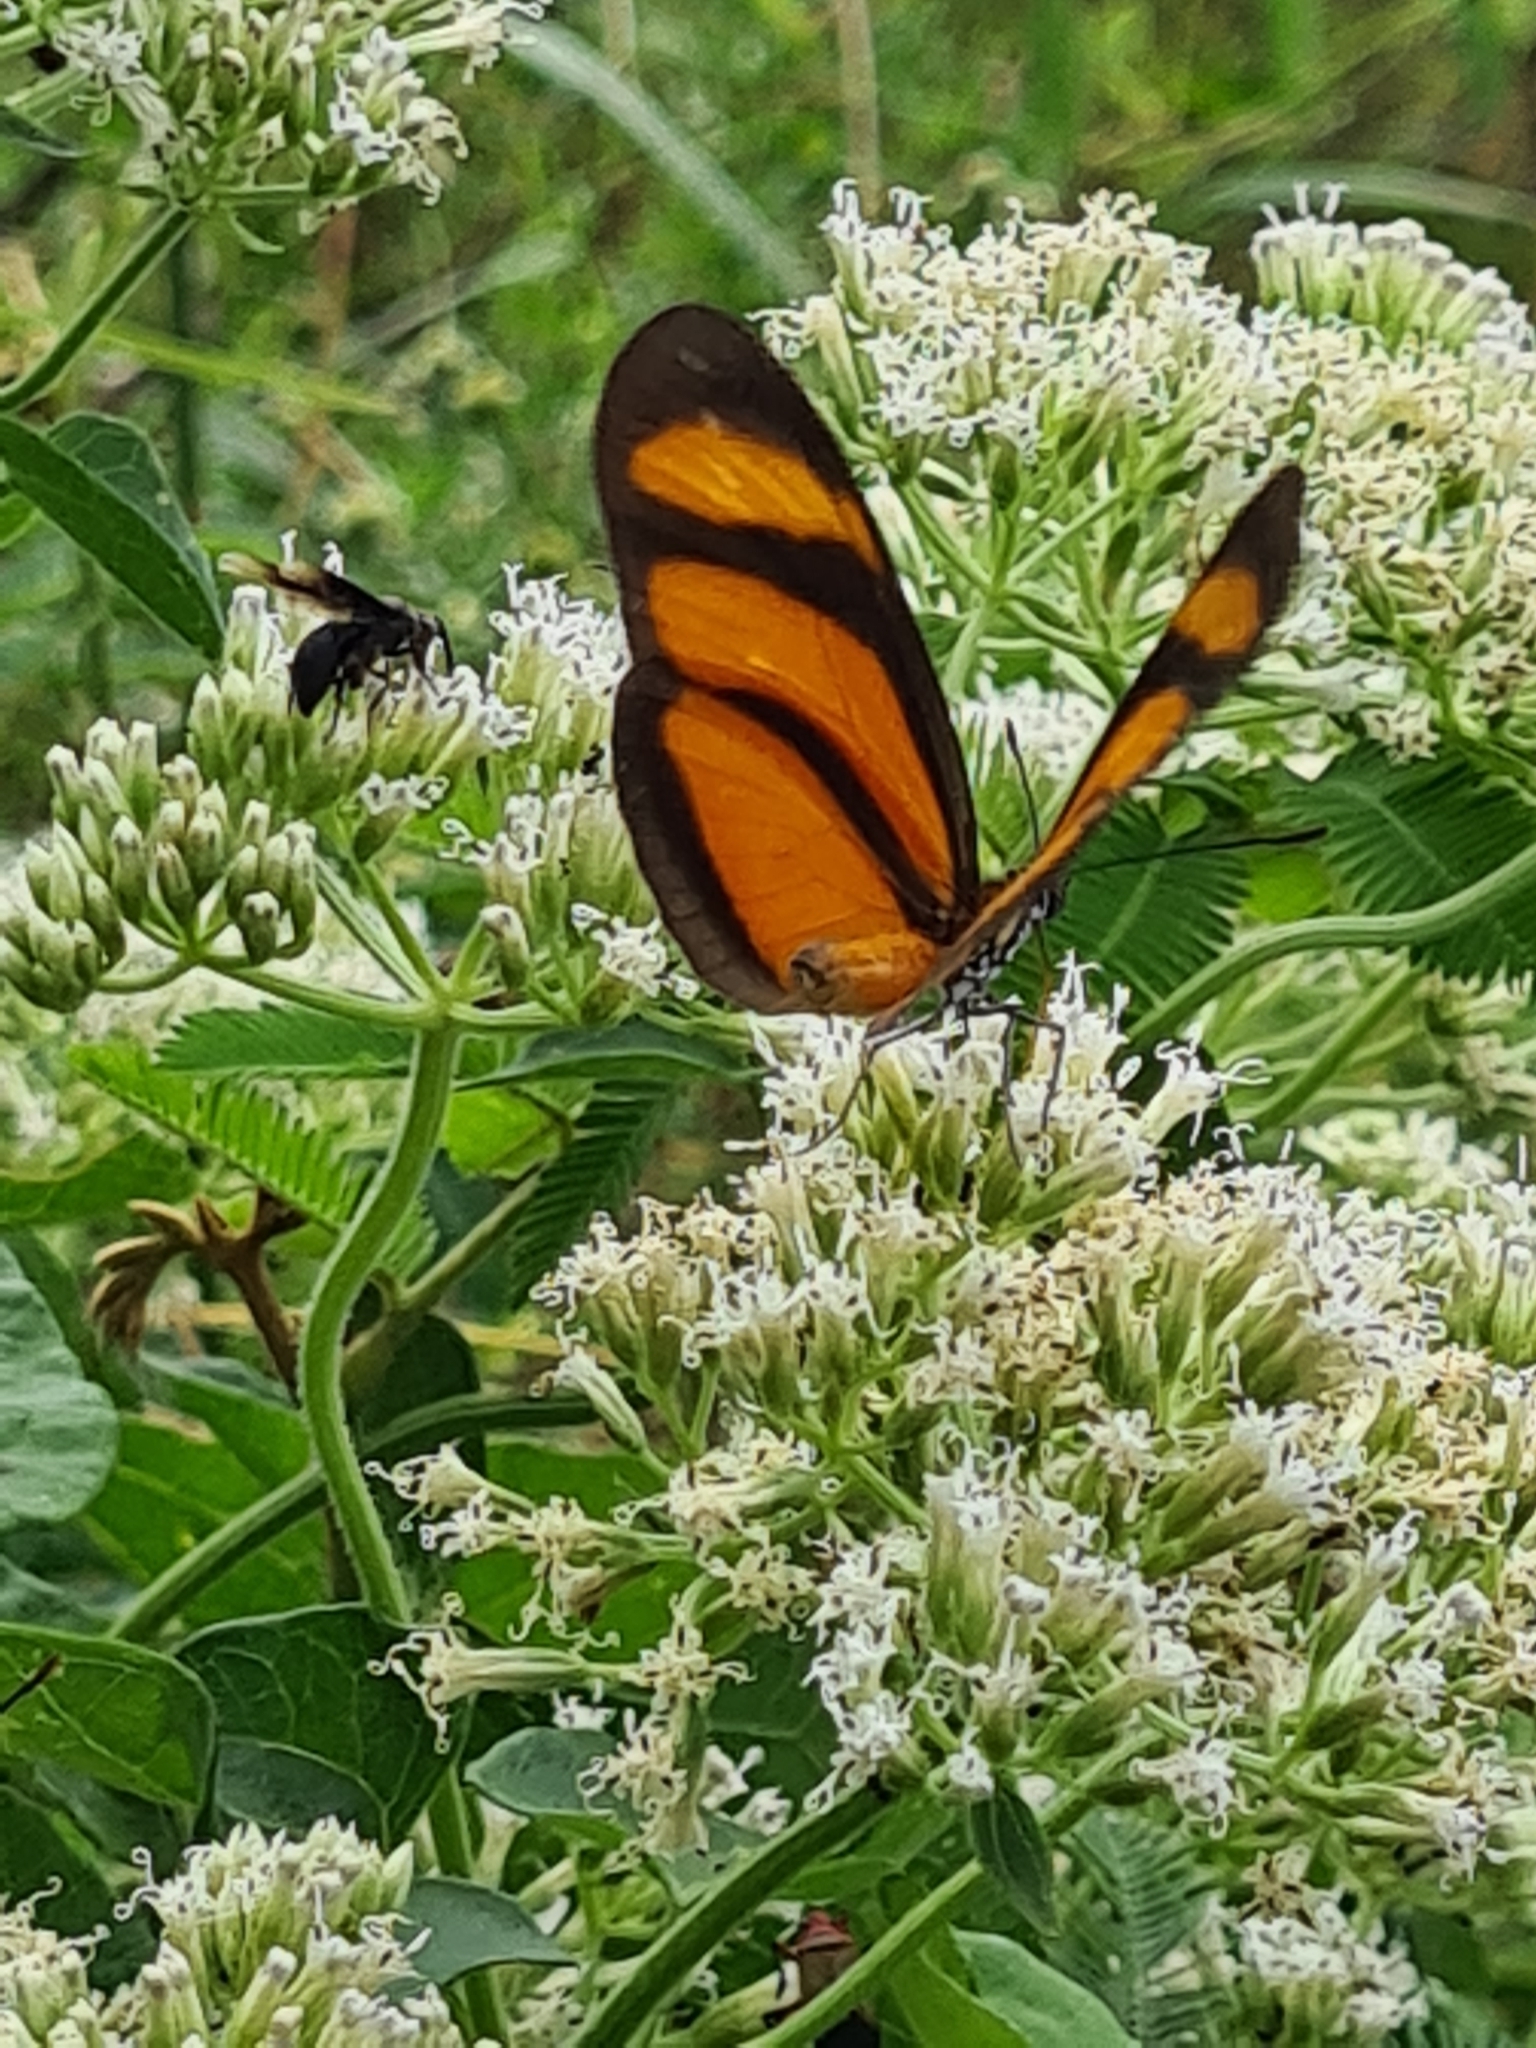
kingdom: Animalia
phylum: Arthropoda
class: Insecta
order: Lepidoptera
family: Nymphalidae
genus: Eueides
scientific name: Eueides lybia
